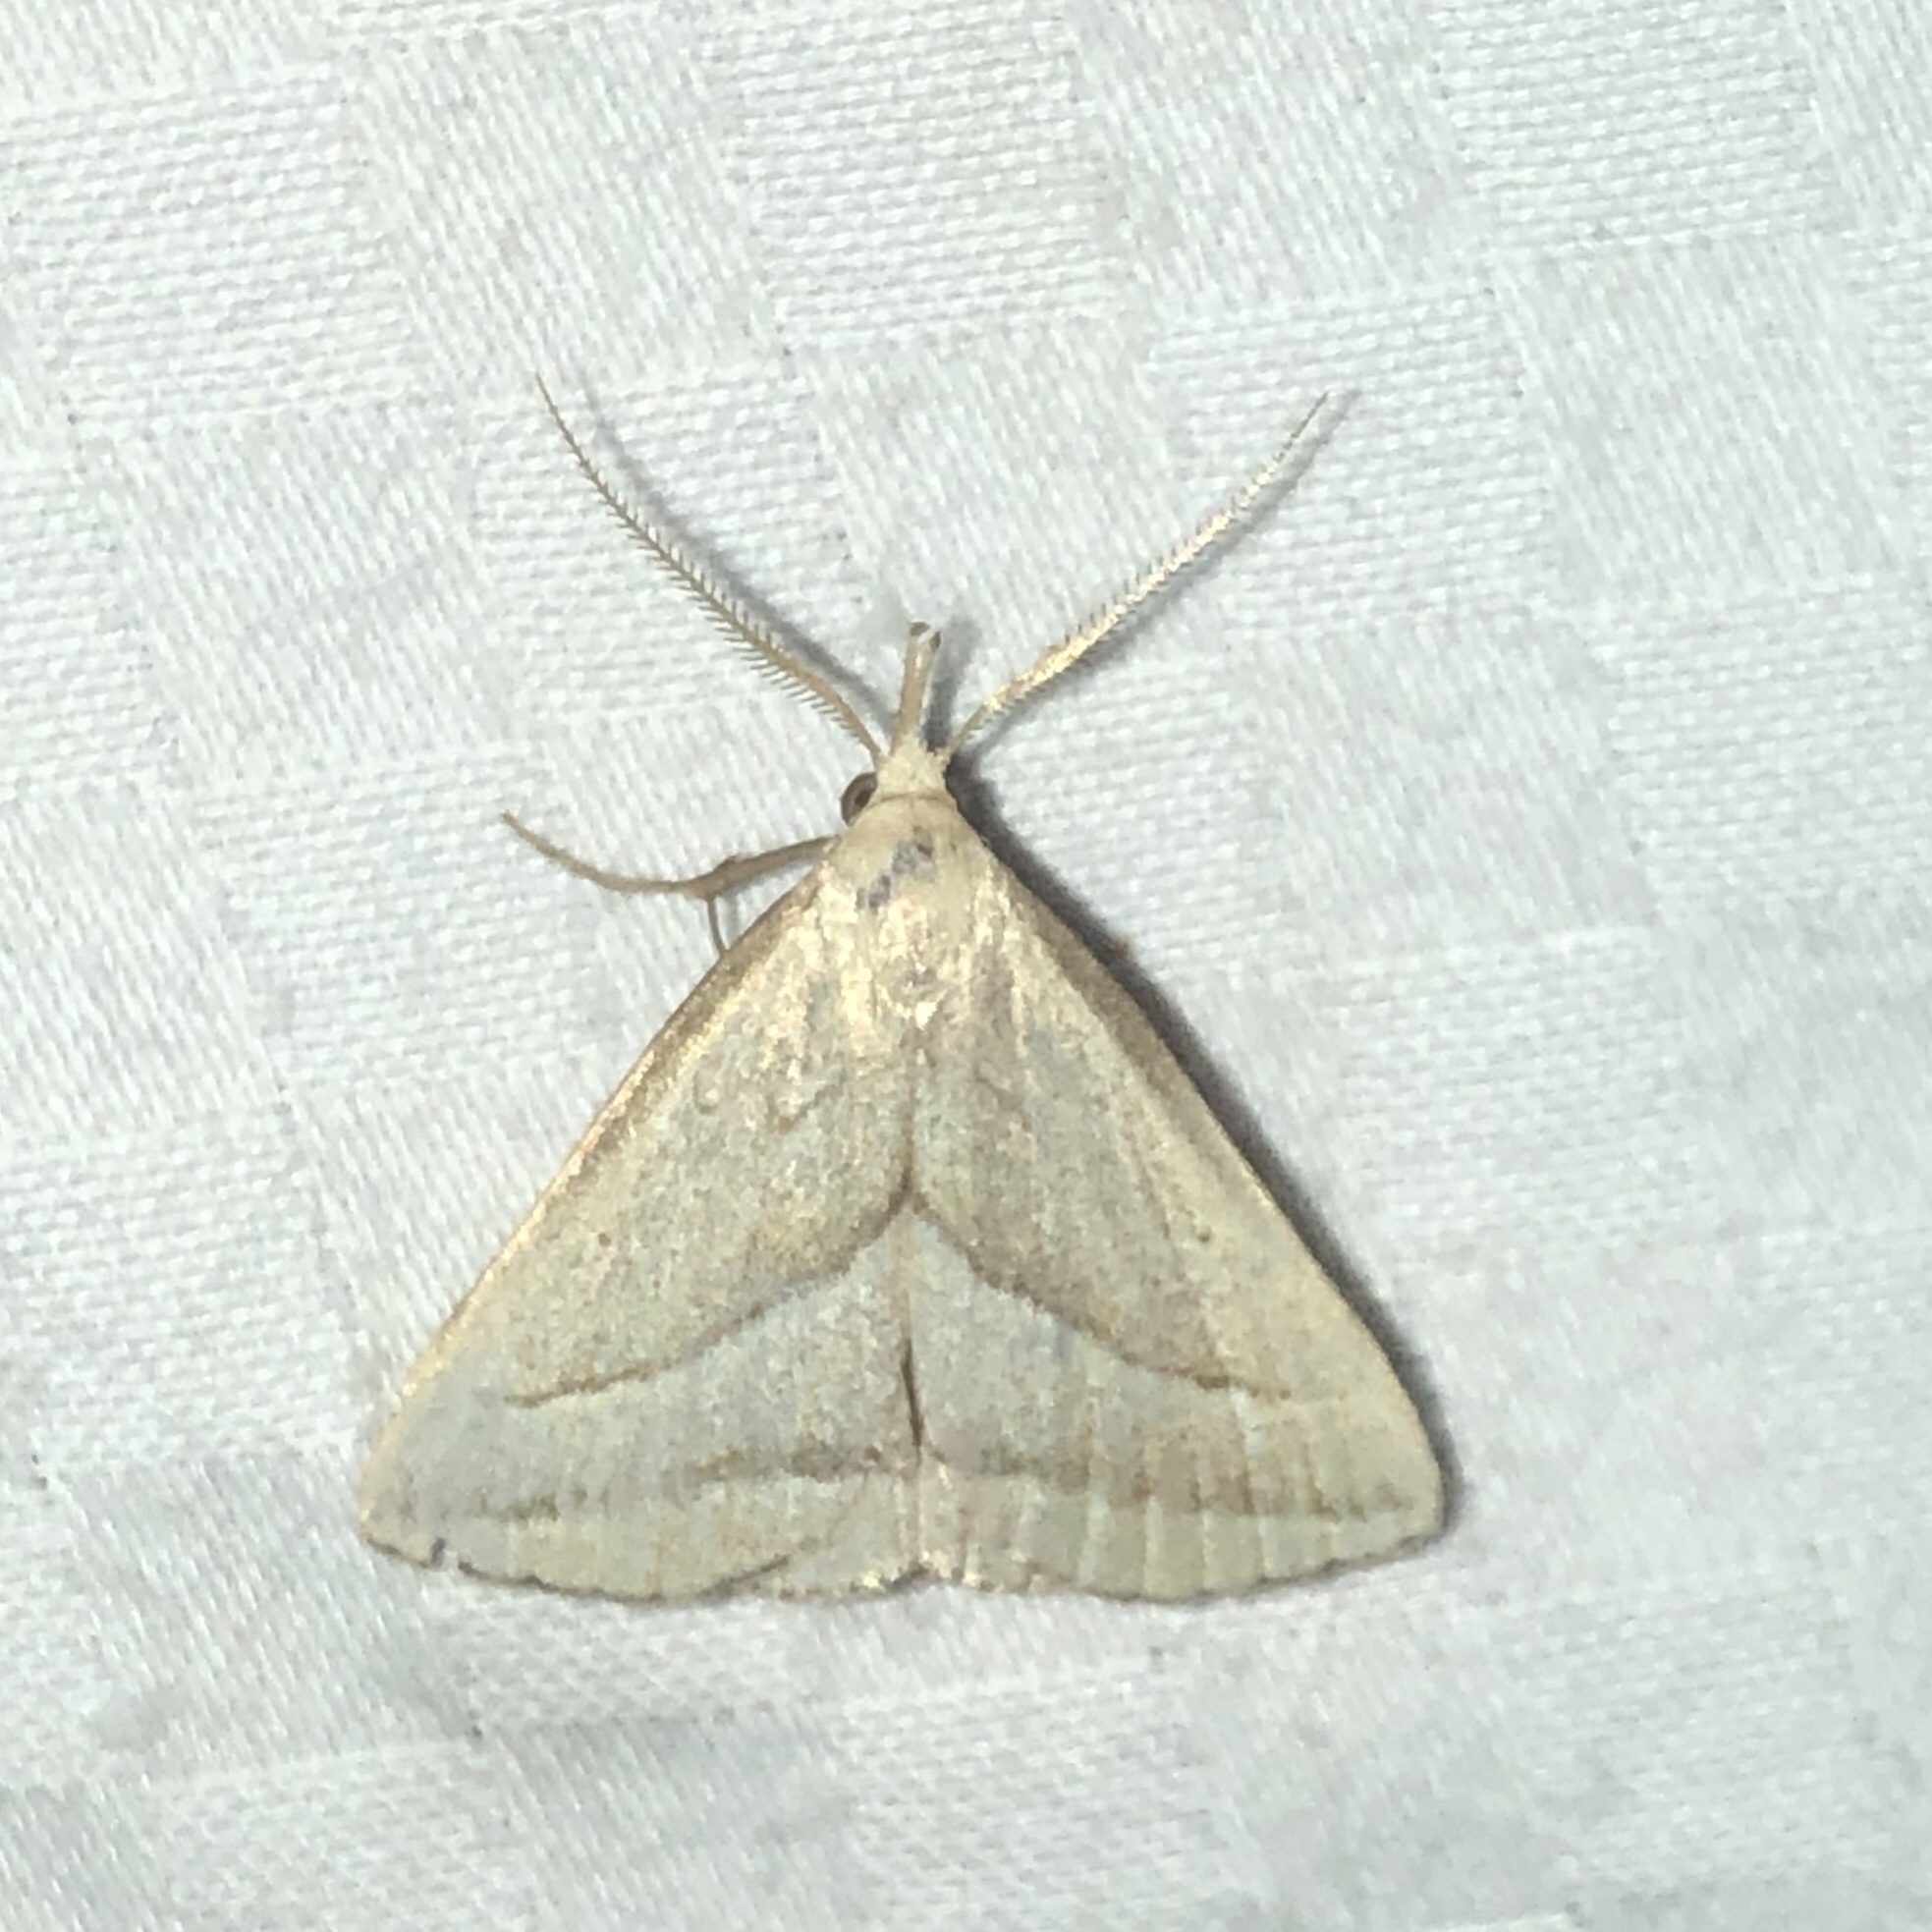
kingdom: Animalia
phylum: Arthropoda
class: Insecta
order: Lepidoptera
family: Erebidae
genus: Macrochilo
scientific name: Macrochilo absorptalis
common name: Slant-lined owlet
